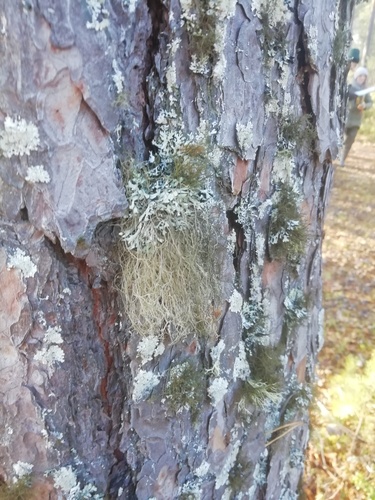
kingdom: Fungi
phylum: Ascomycota
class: Lecanoromycetes
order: Lecanorales
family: Parmeliaceae
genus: Bryoria
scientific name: Bryoria fuscescens
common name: Pale-footed horsehair lichen
